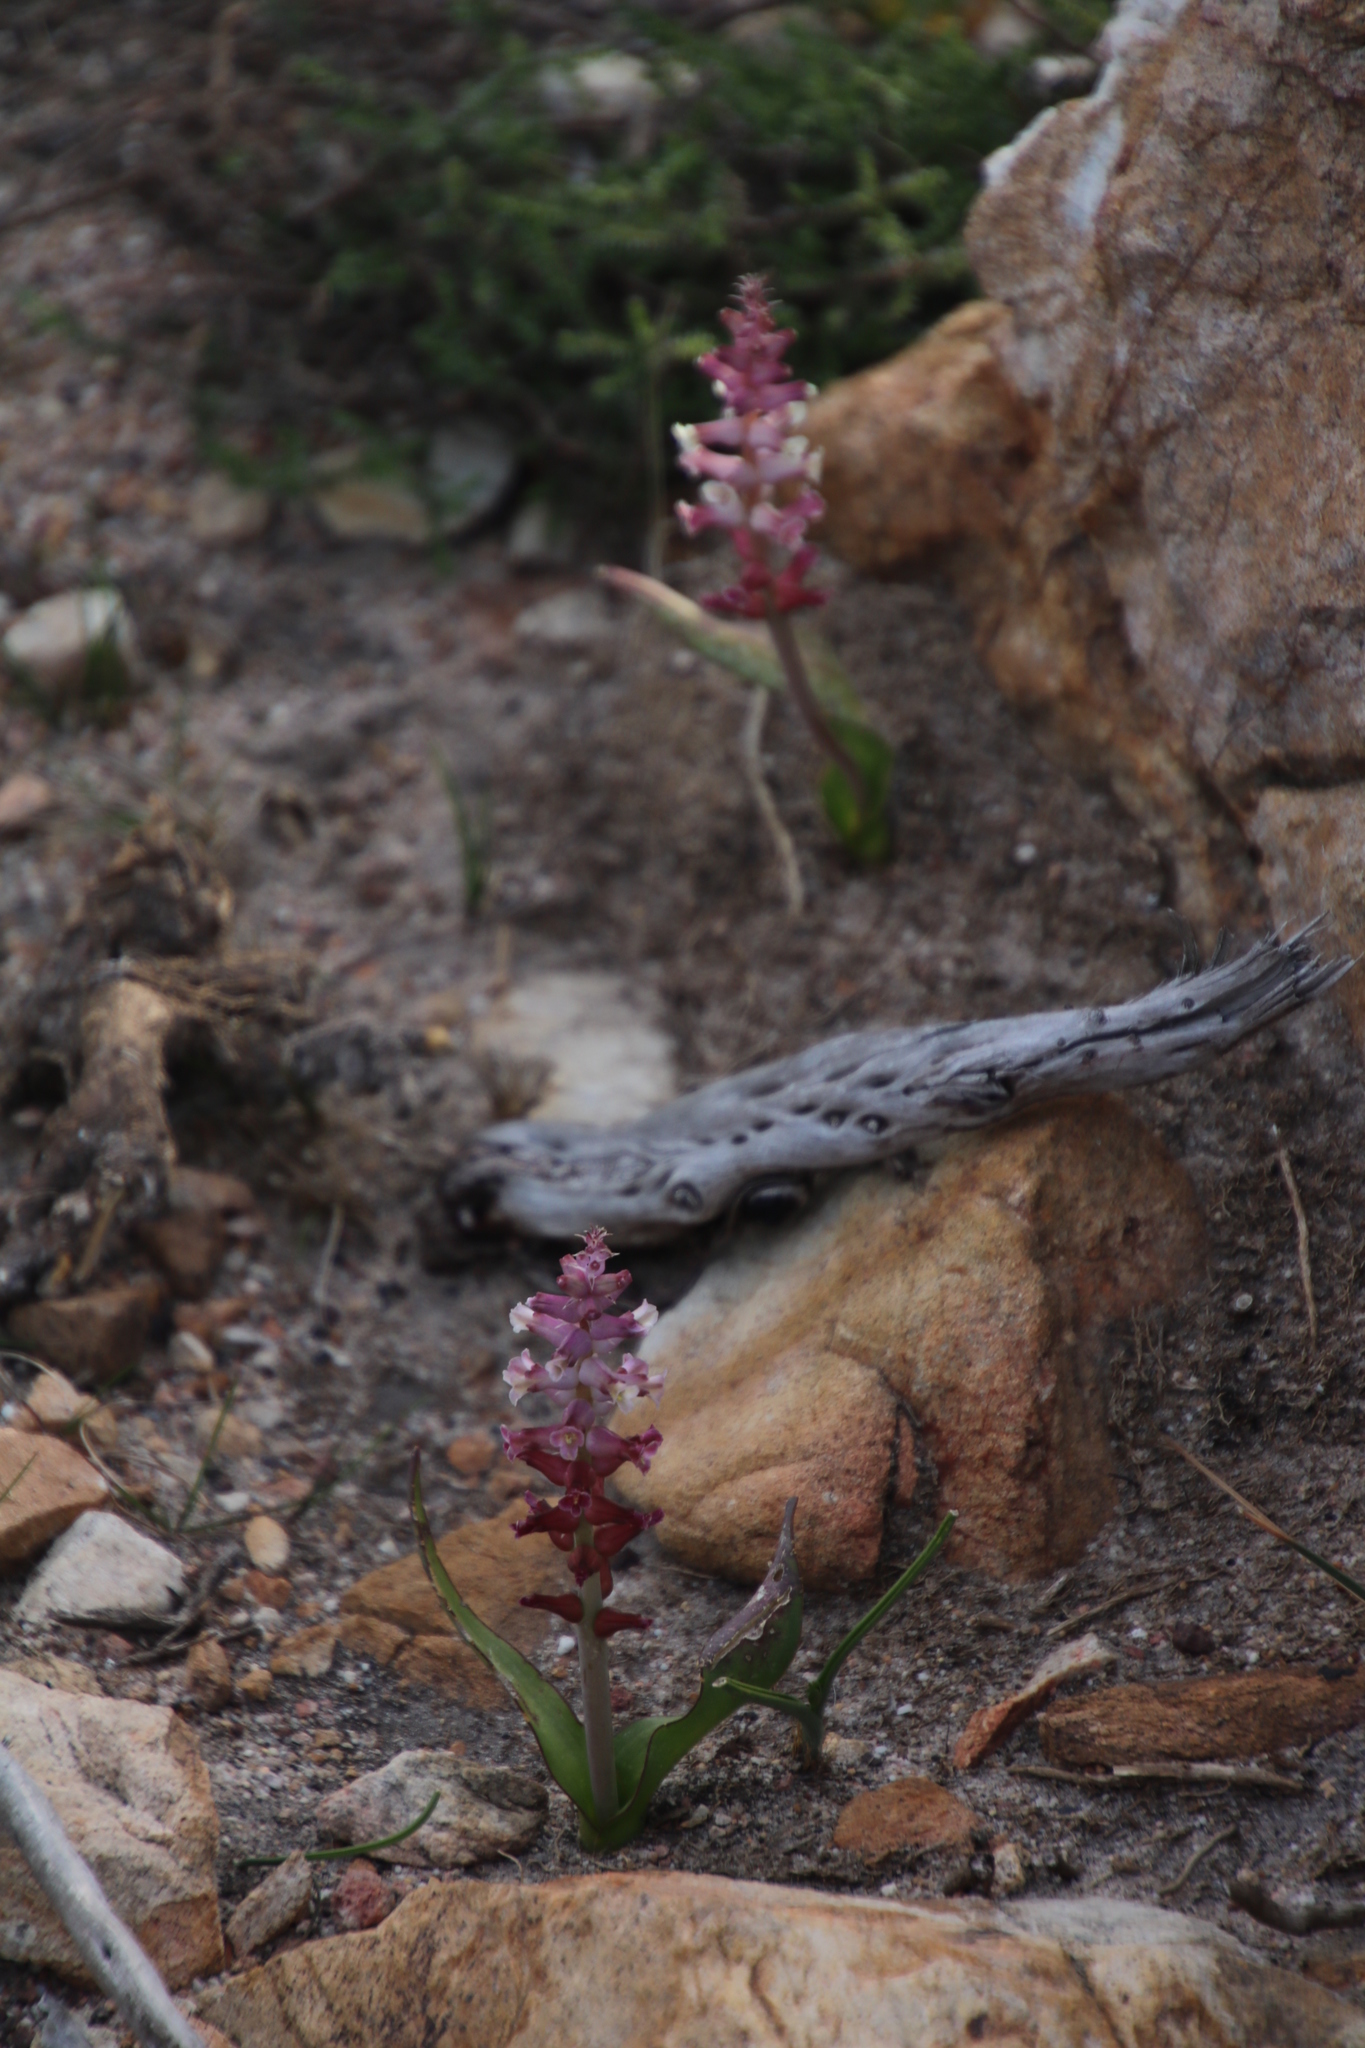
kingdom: Plantae
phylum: Tracheophyta
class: Liliopsida
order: Asparagales
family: Asparagaceae
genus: Lachenalia
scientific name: Lachenalia fistulosa
